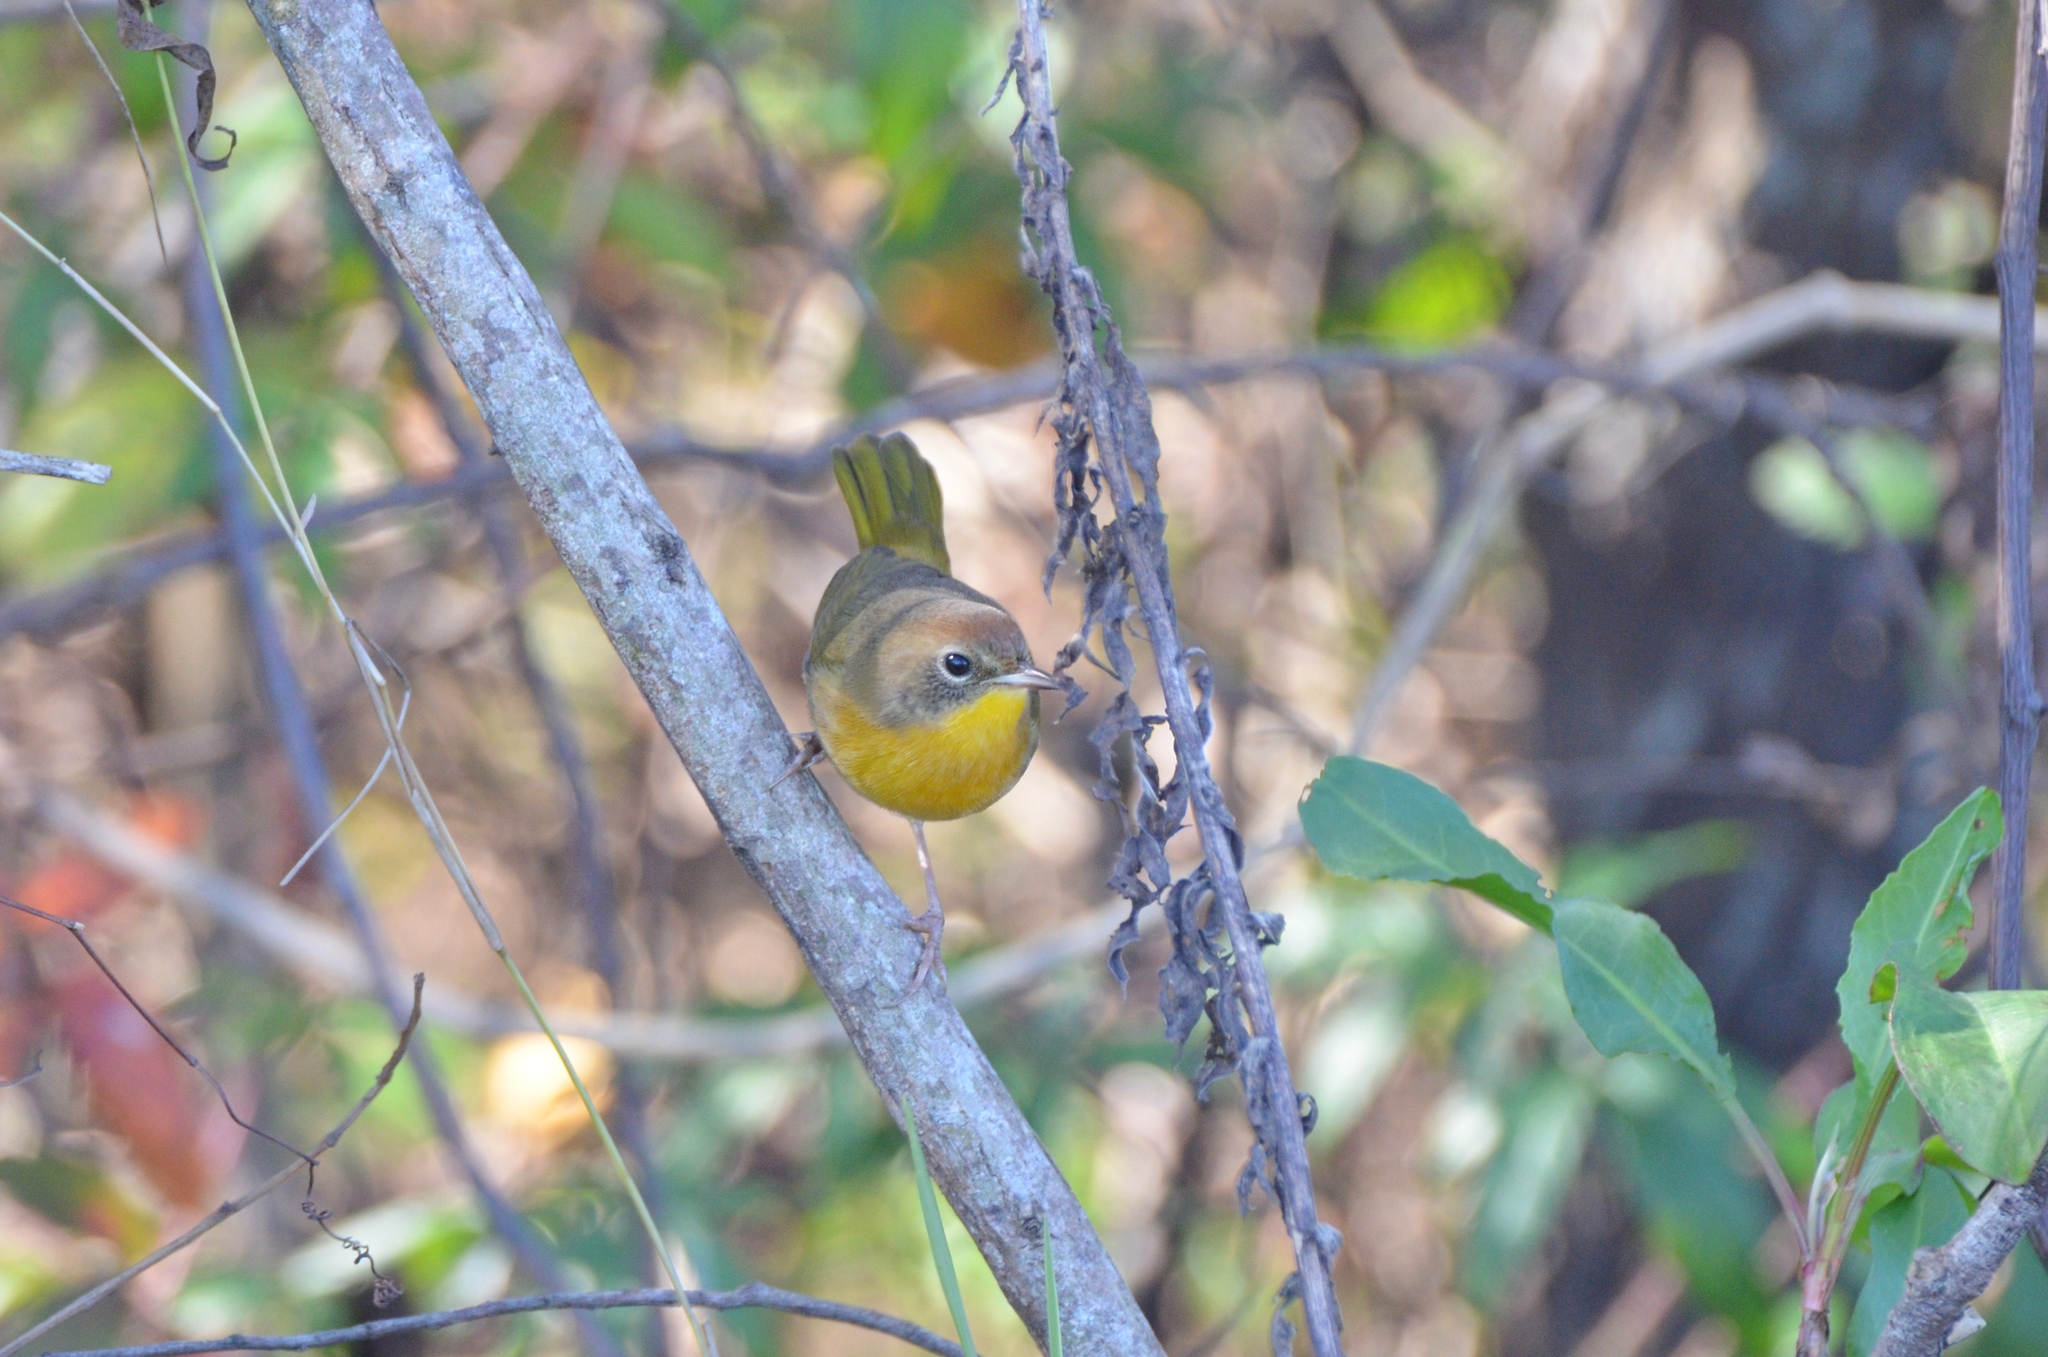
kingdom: Animalia
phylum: Chordata
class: Aves
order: Passeriformes
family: Parulidae
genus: Geothlypis
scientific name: Geothlypis trichas
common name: Common yellowthroat
